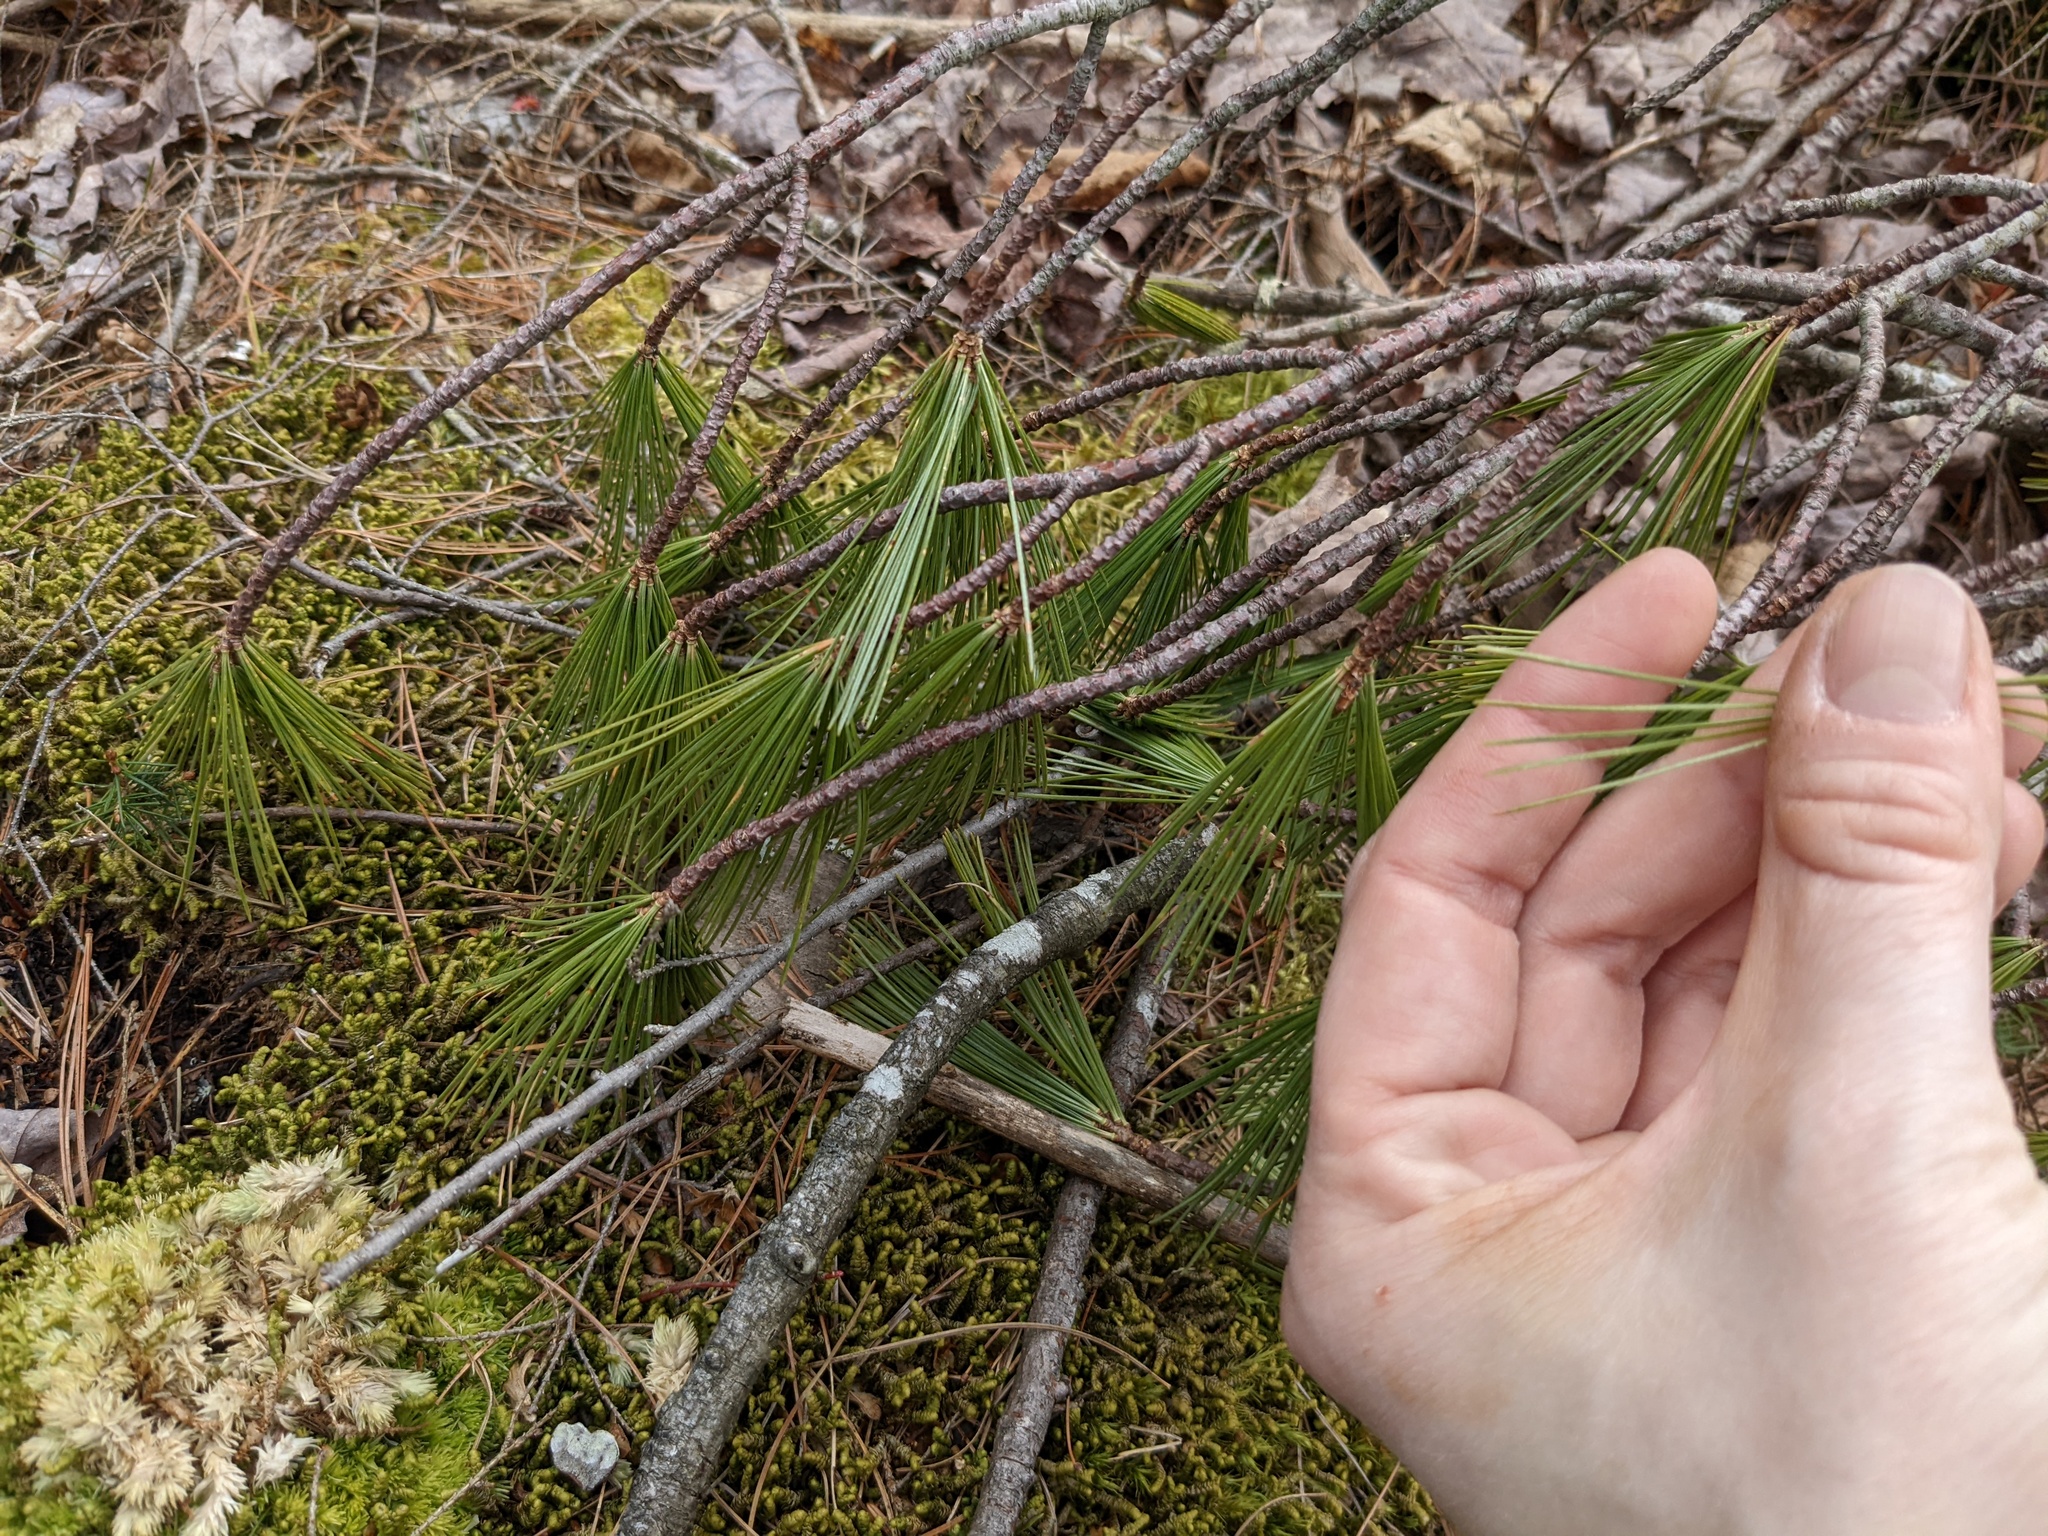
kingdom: Plantae
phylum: Tracheophyta
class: Pinopsida
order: Pinales
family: Pinaceae
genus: Pinus
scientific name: Pinus strobus
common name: Weymouth pine
